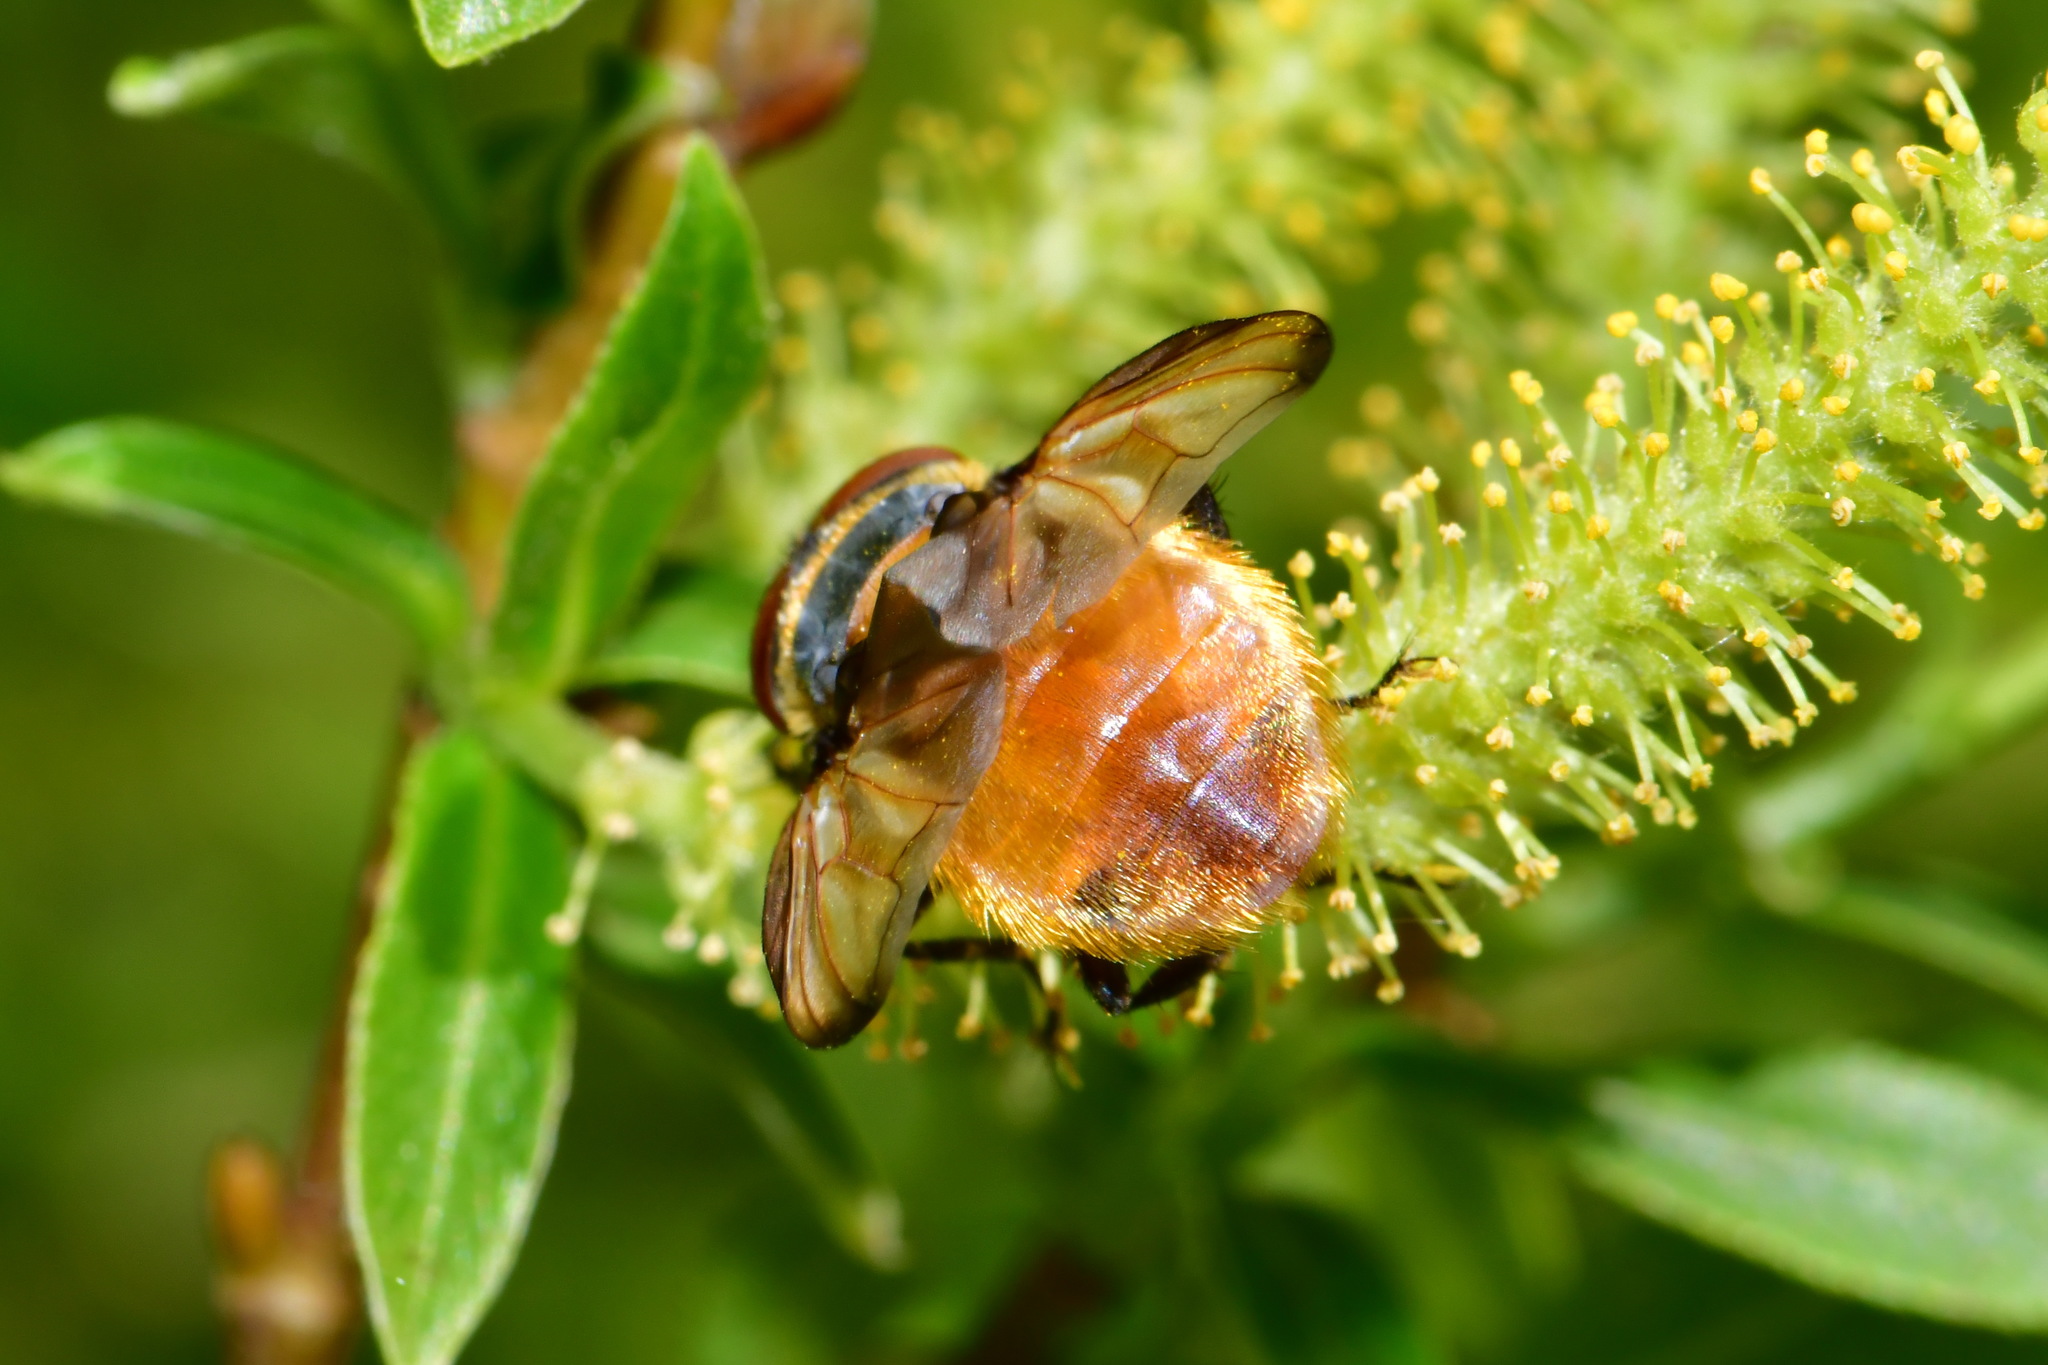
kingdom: Animalia
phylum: Arthropoda
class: Insecta
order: Diptera
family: Tachinidae
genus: Phasia
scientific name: Phasia hemiptera
